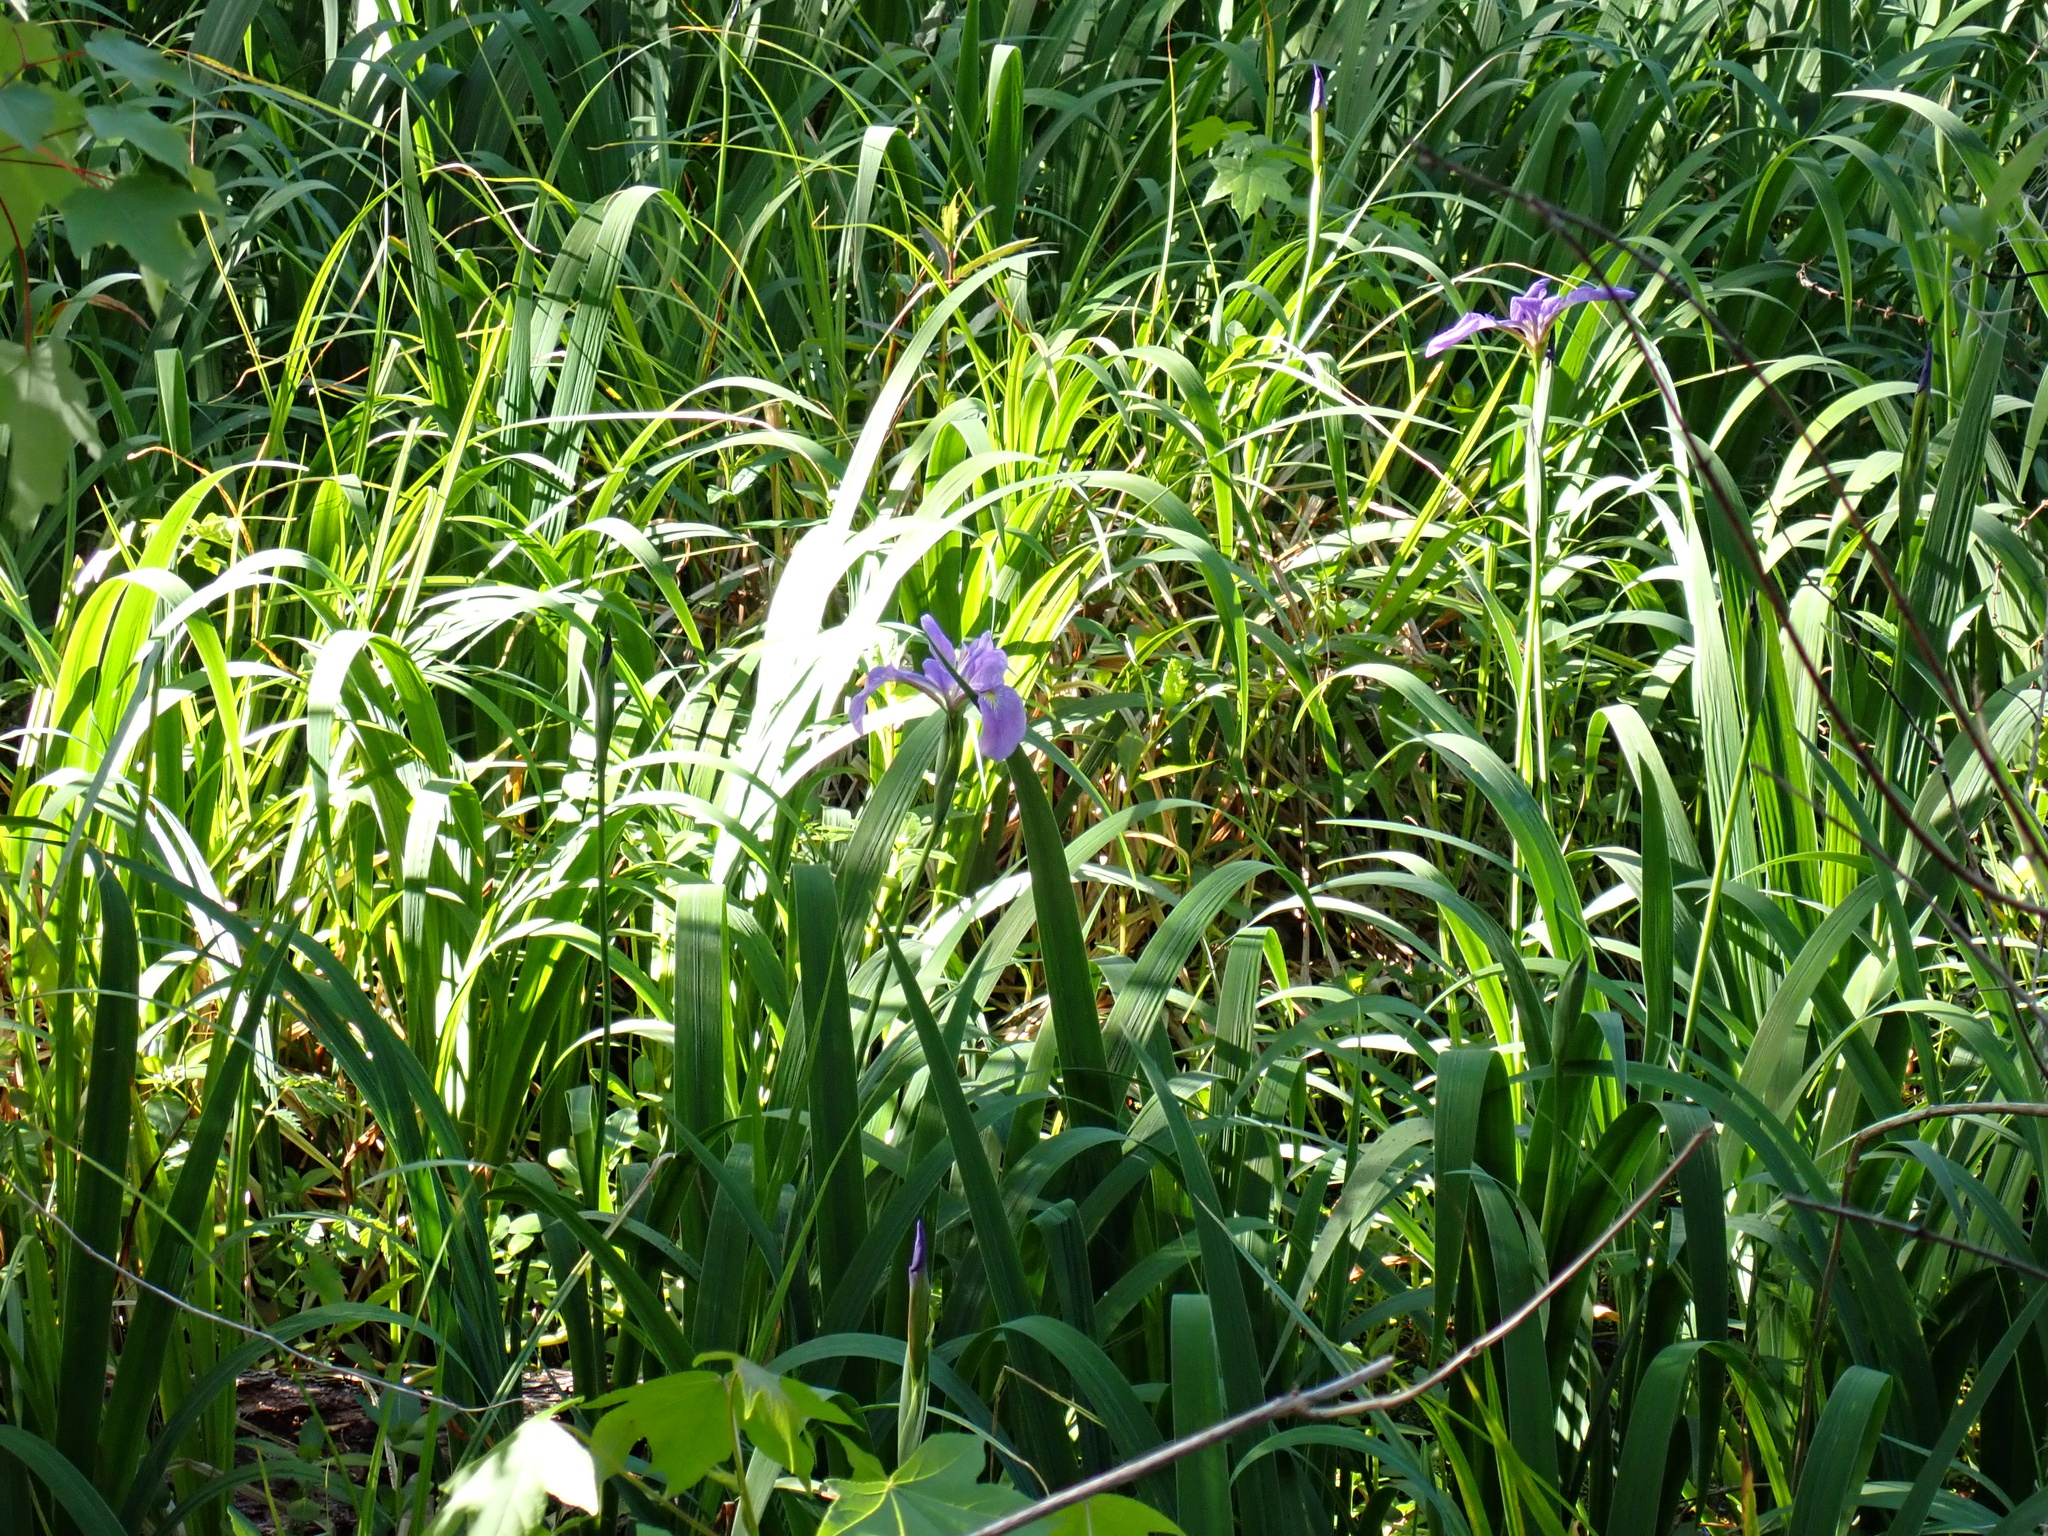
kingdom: Plantae
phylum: Tracheophyta
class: Liliopsida
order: Asparagales
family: Iridaceae
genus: Iris
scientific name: Iris virginica
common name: Southern blue flag
